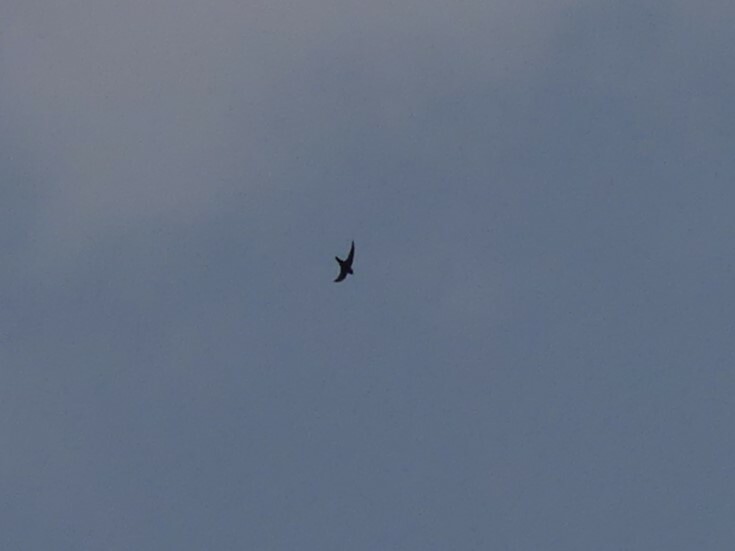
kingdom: Animalia
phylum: Chordata
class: Aves
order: Apodiformes
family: Apodidae
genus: Cypseloides
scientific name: Cypseloides niger
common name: Black swift
